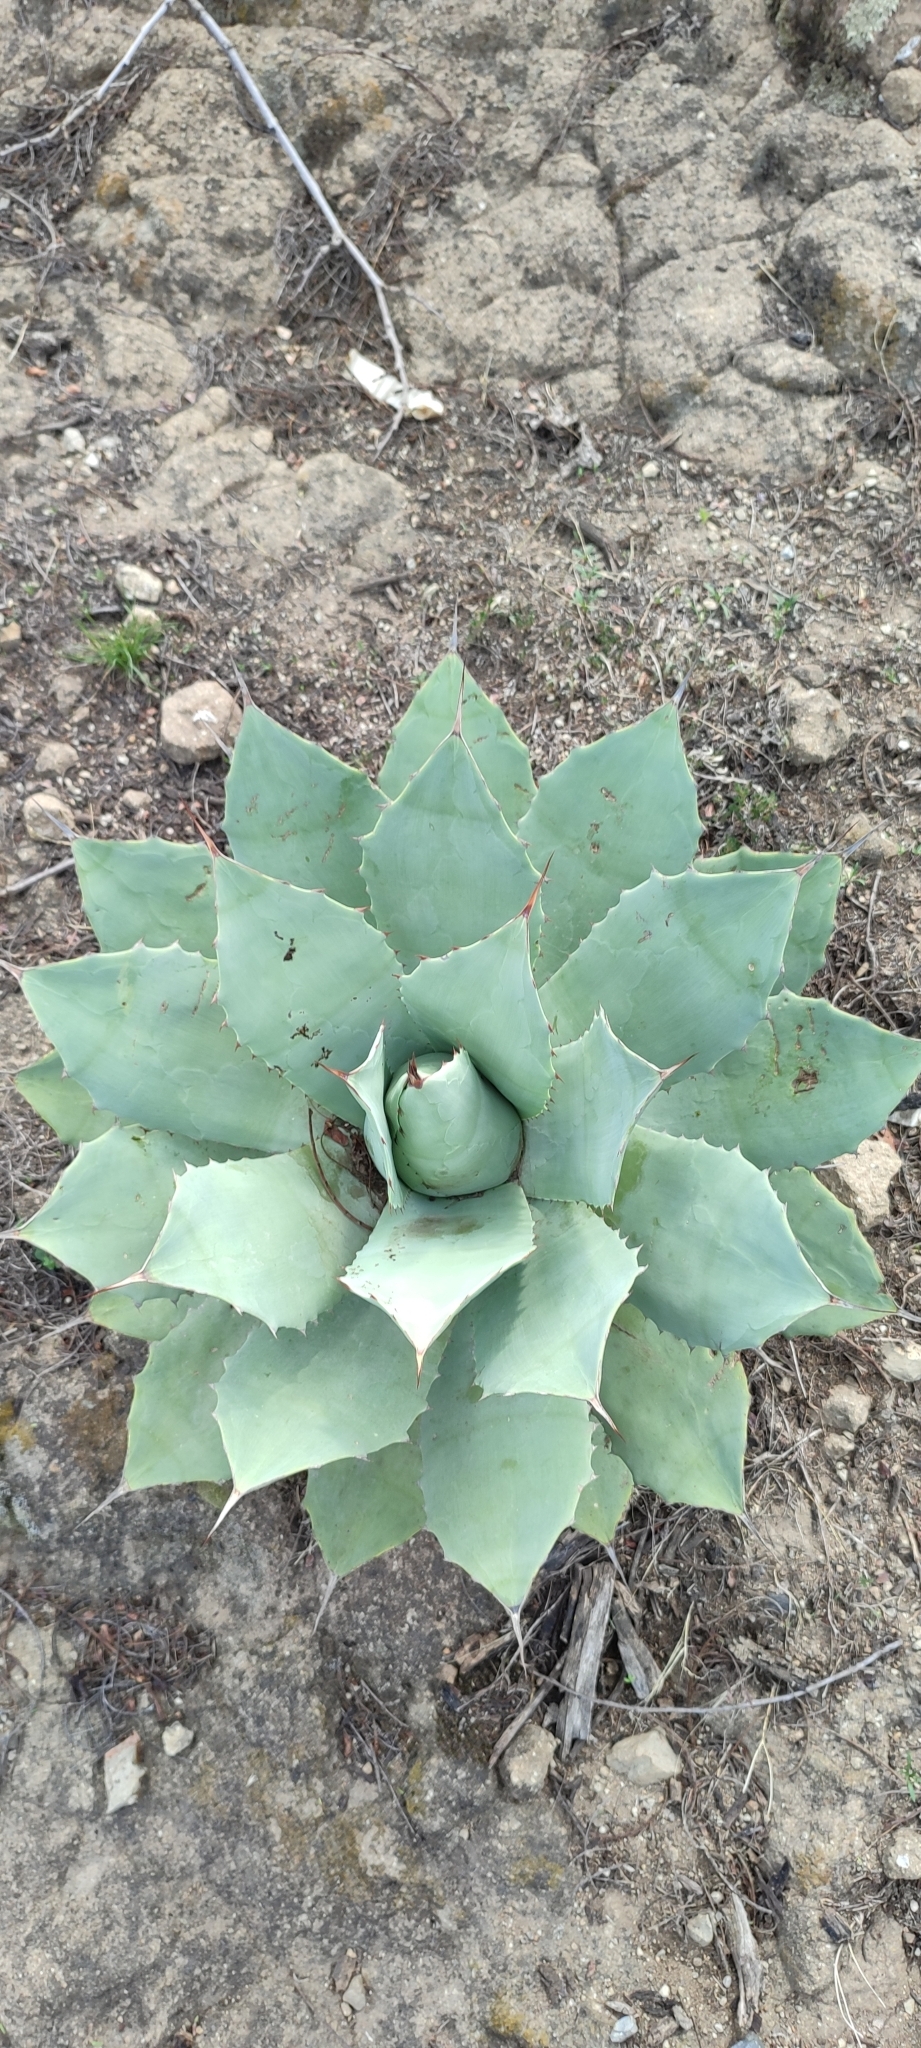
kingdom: Plantae
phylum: Tracheophyta
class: Liliopsida
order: Asparagales
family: Asparagaceae
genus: Agave
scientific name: Agave potatorum
